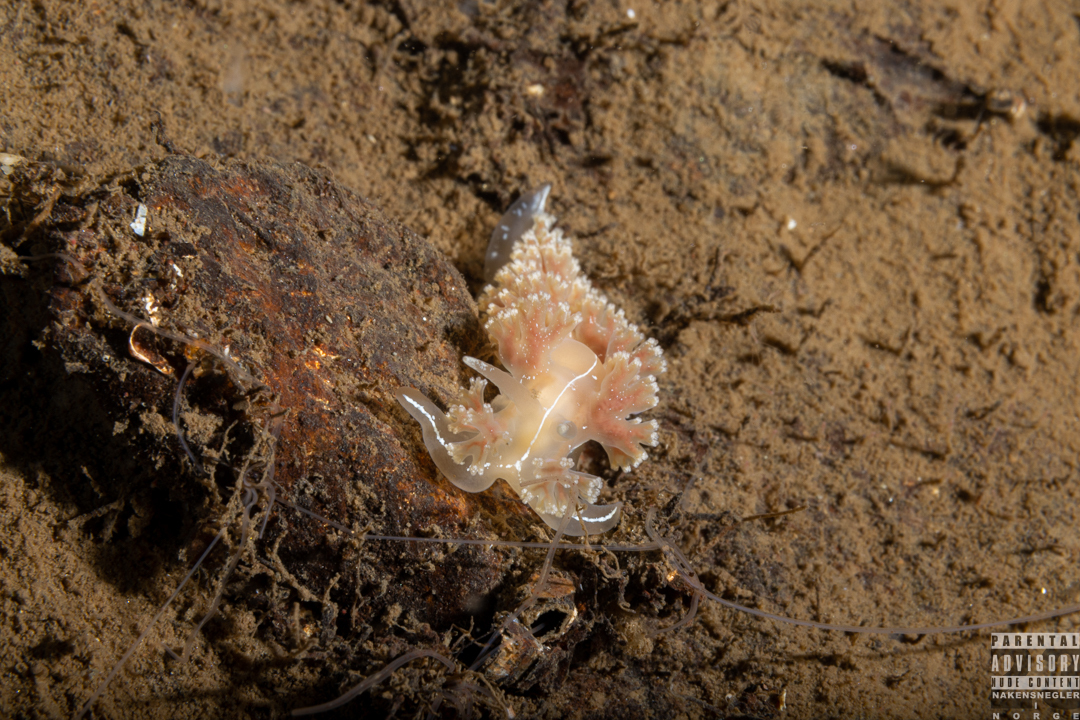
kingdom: Animalia
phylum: Mollusca
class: Gastropoda
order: Nudibranchia
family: Heroidae
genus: Hero
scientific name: Hero formosa
